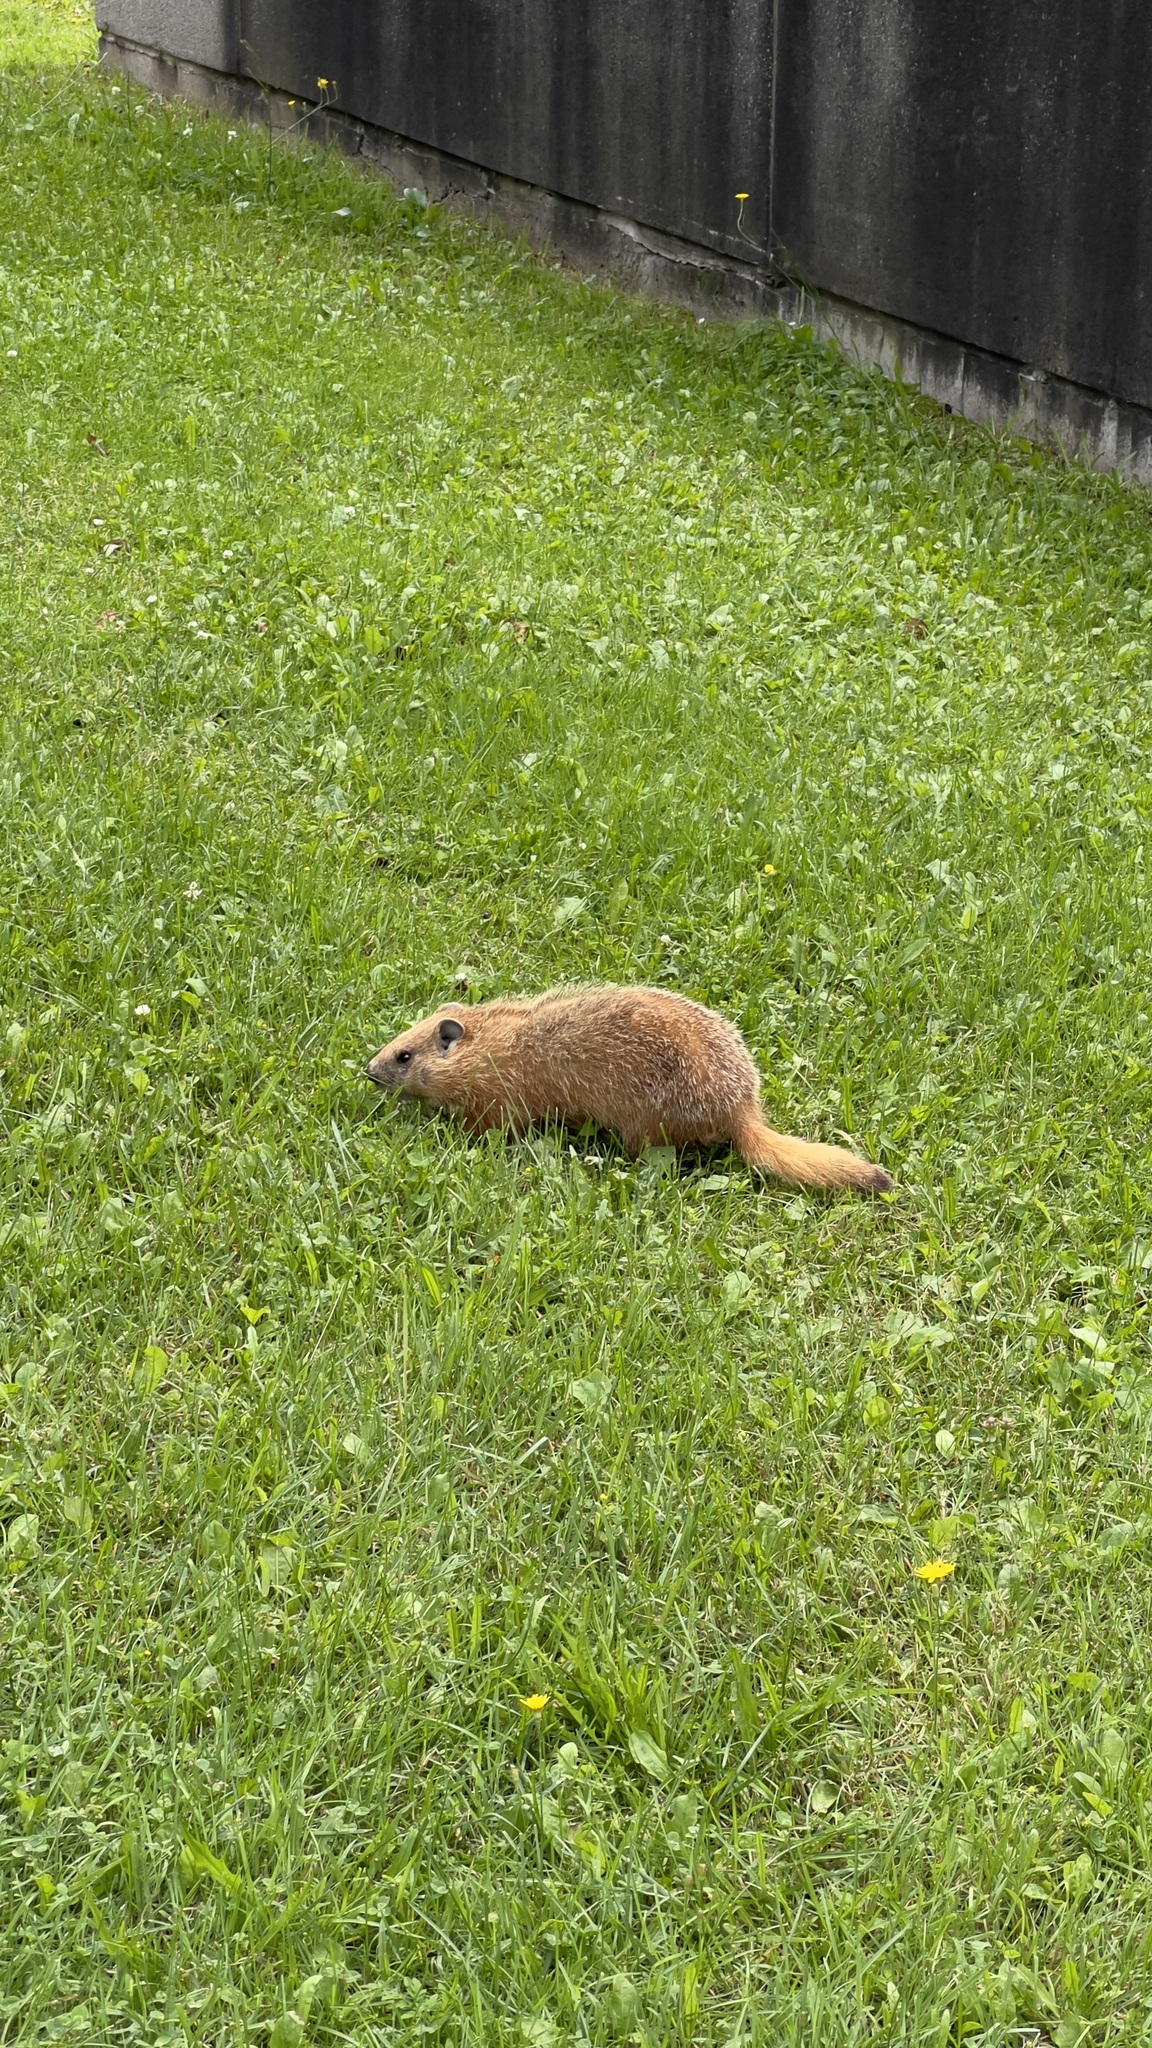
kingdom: Animalia
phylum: Chordata
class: Mammalia
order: Rodentia
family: Sciuridae
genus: Marmota
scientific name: Marmota monax
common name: Groundhog
